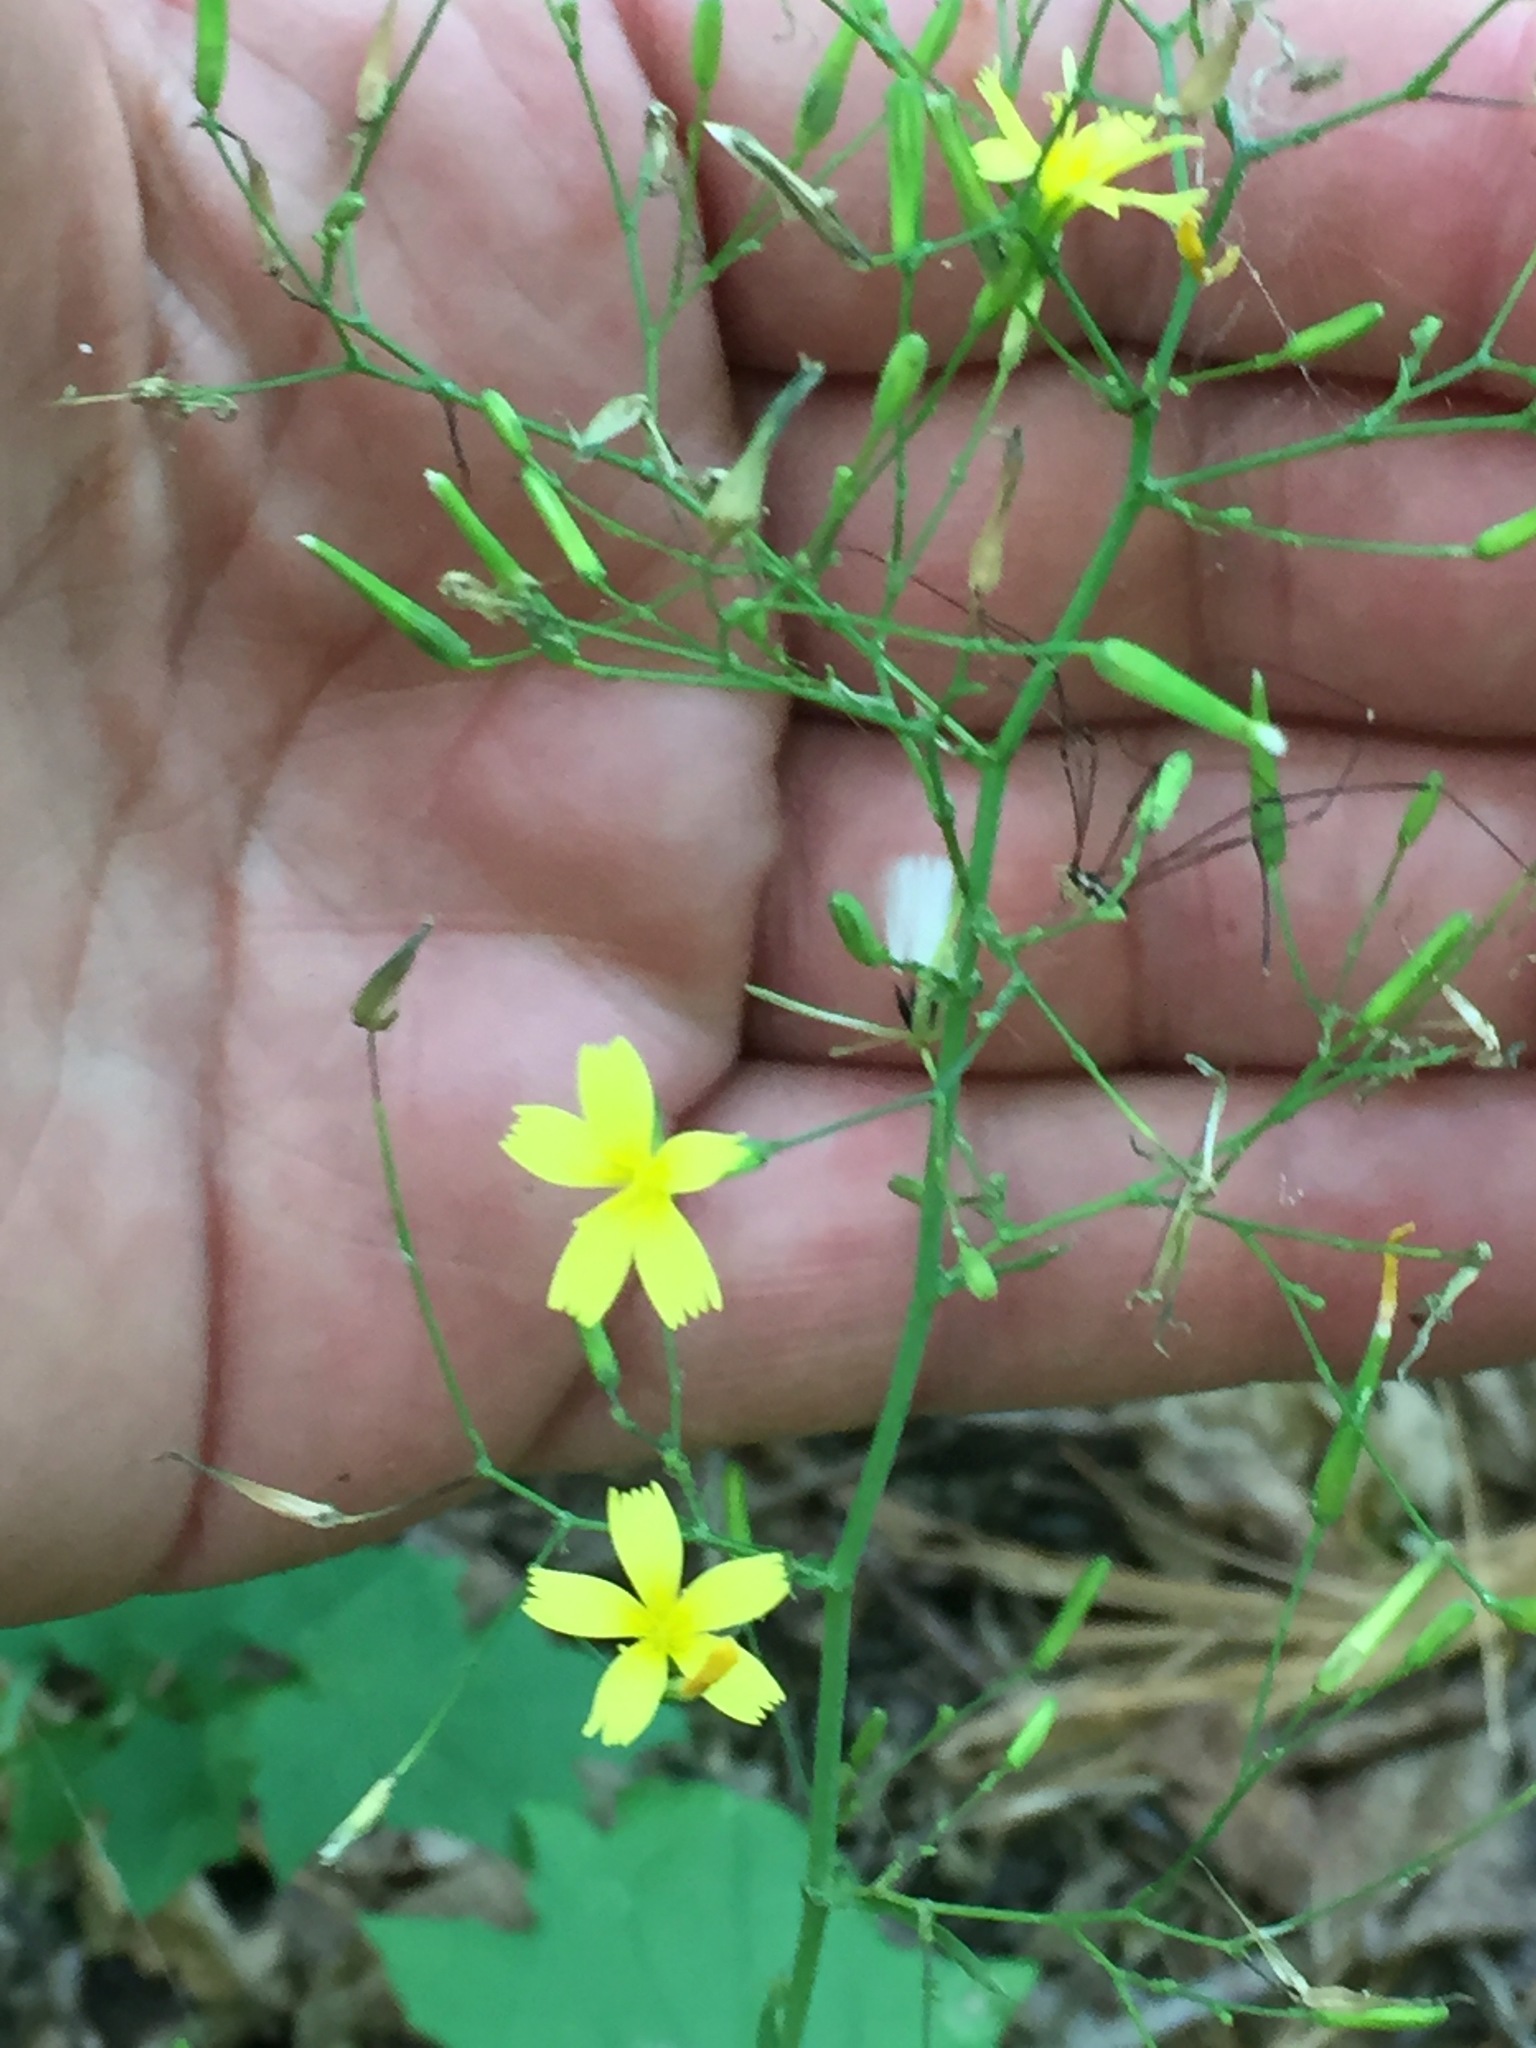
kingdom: Plantae
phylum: Tracheophyta
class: Magnoliopsida
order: Asterales
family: Asteraceae
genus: Mycelis
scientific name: Mycelis muralis
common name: Wall lettuce
